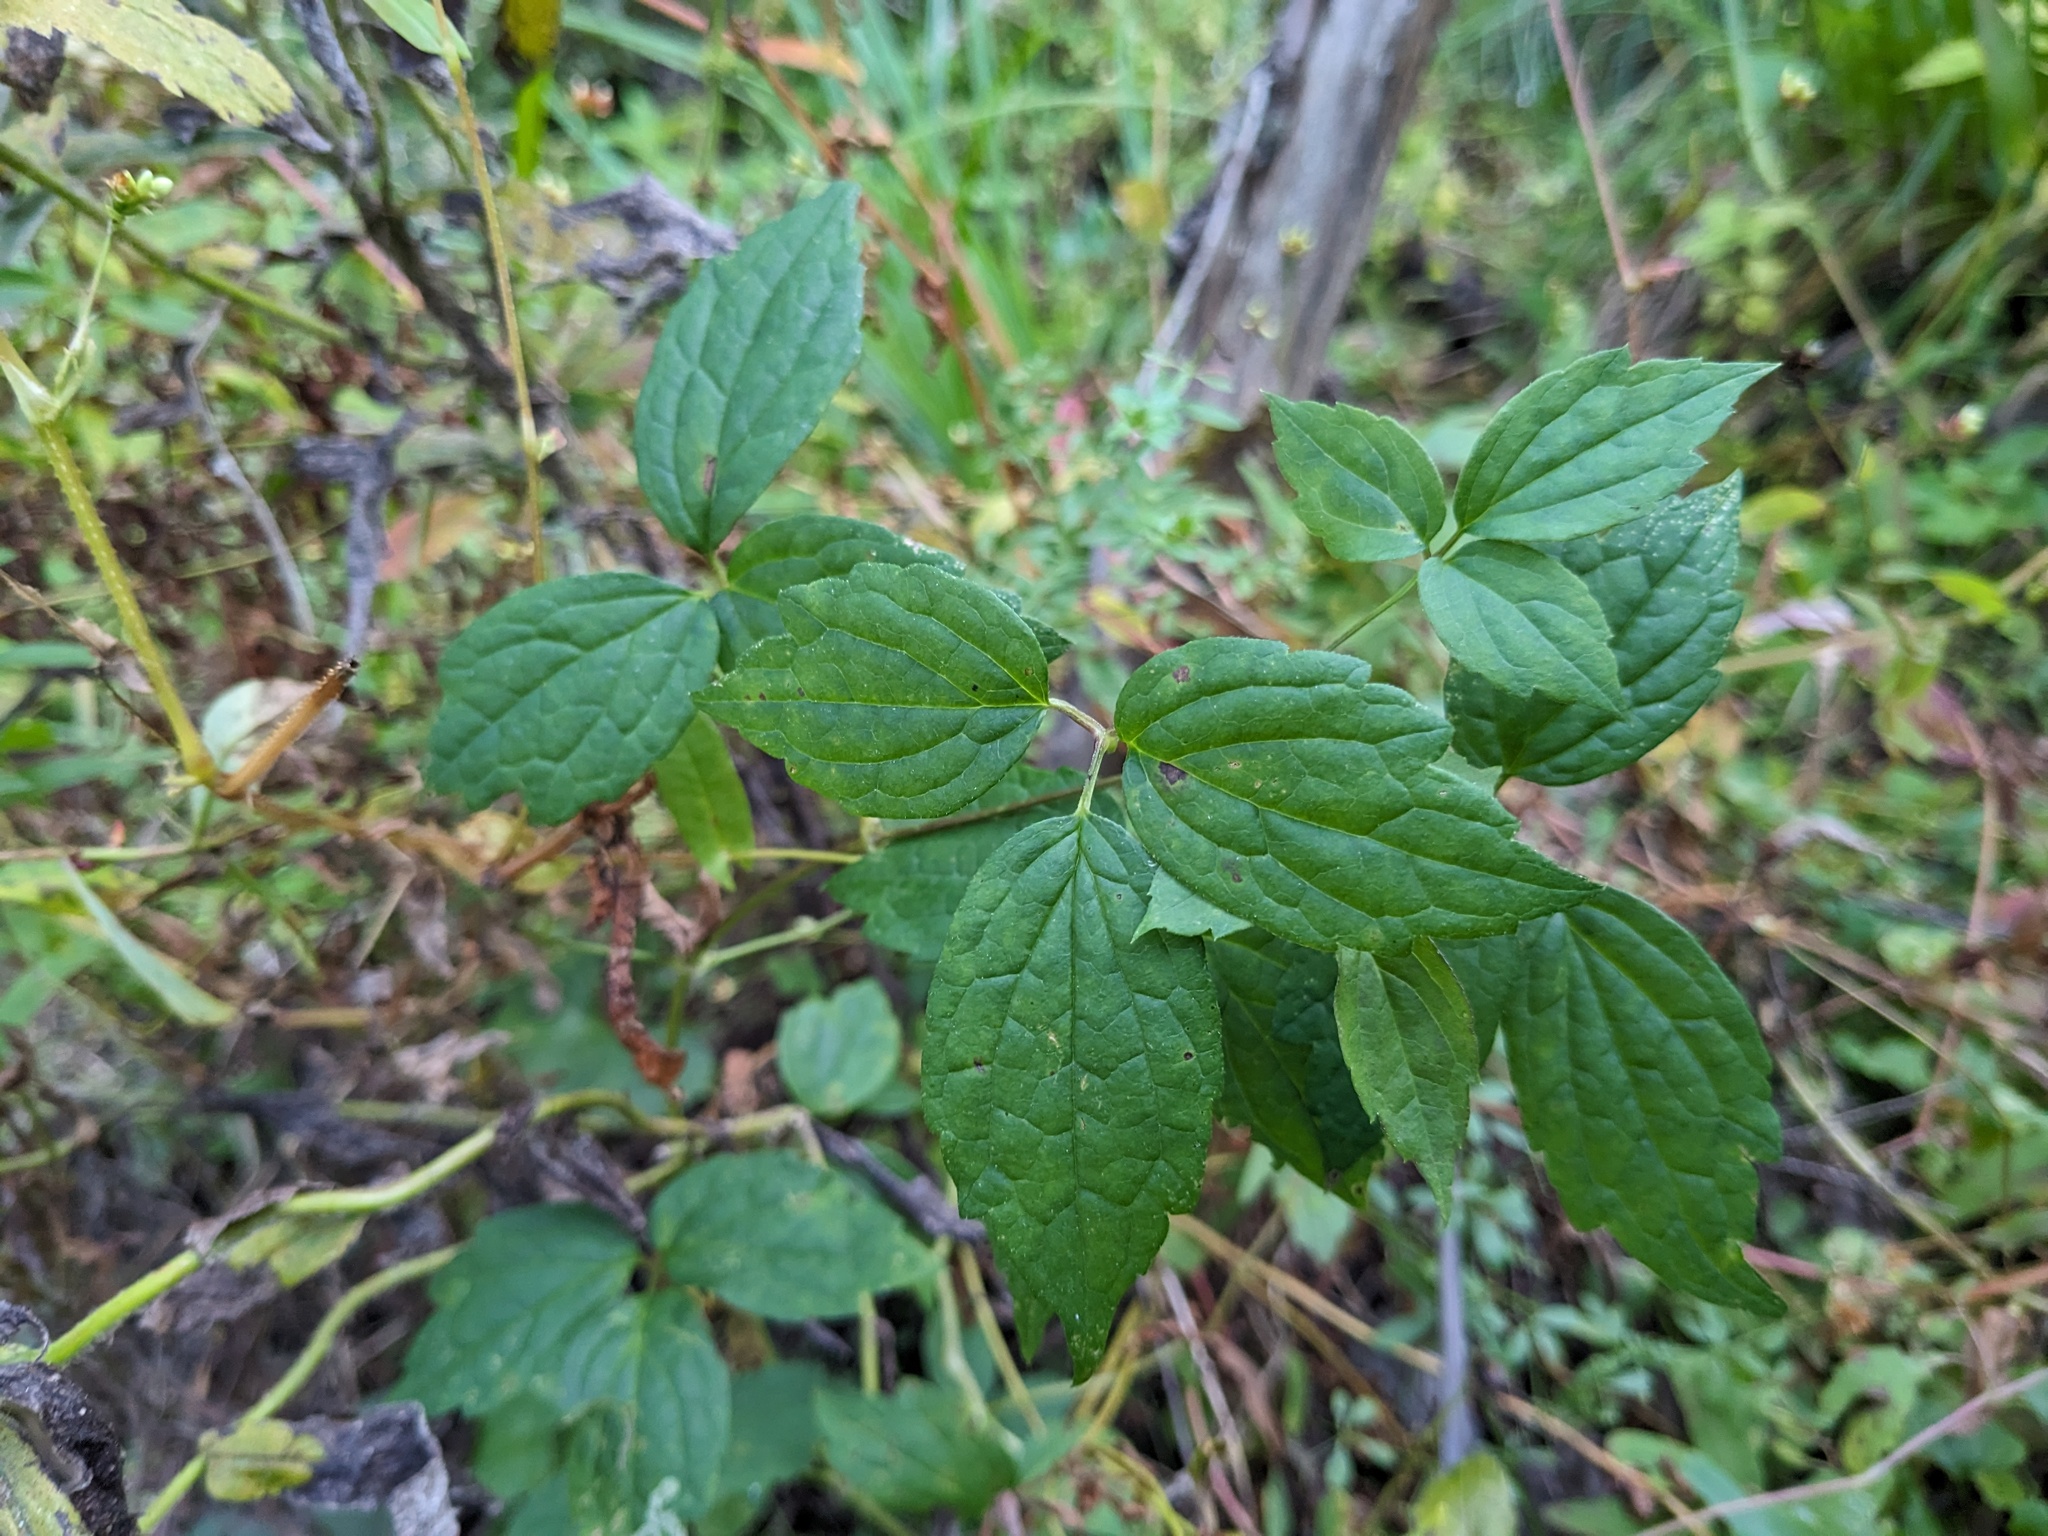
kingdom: Plantae
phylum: Tracheophyta
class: Magnoliopsida
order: Ranunculales
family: Ranunculaceae
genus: Clematis
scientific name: Clematis virginiana
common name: Virgin's-bower
